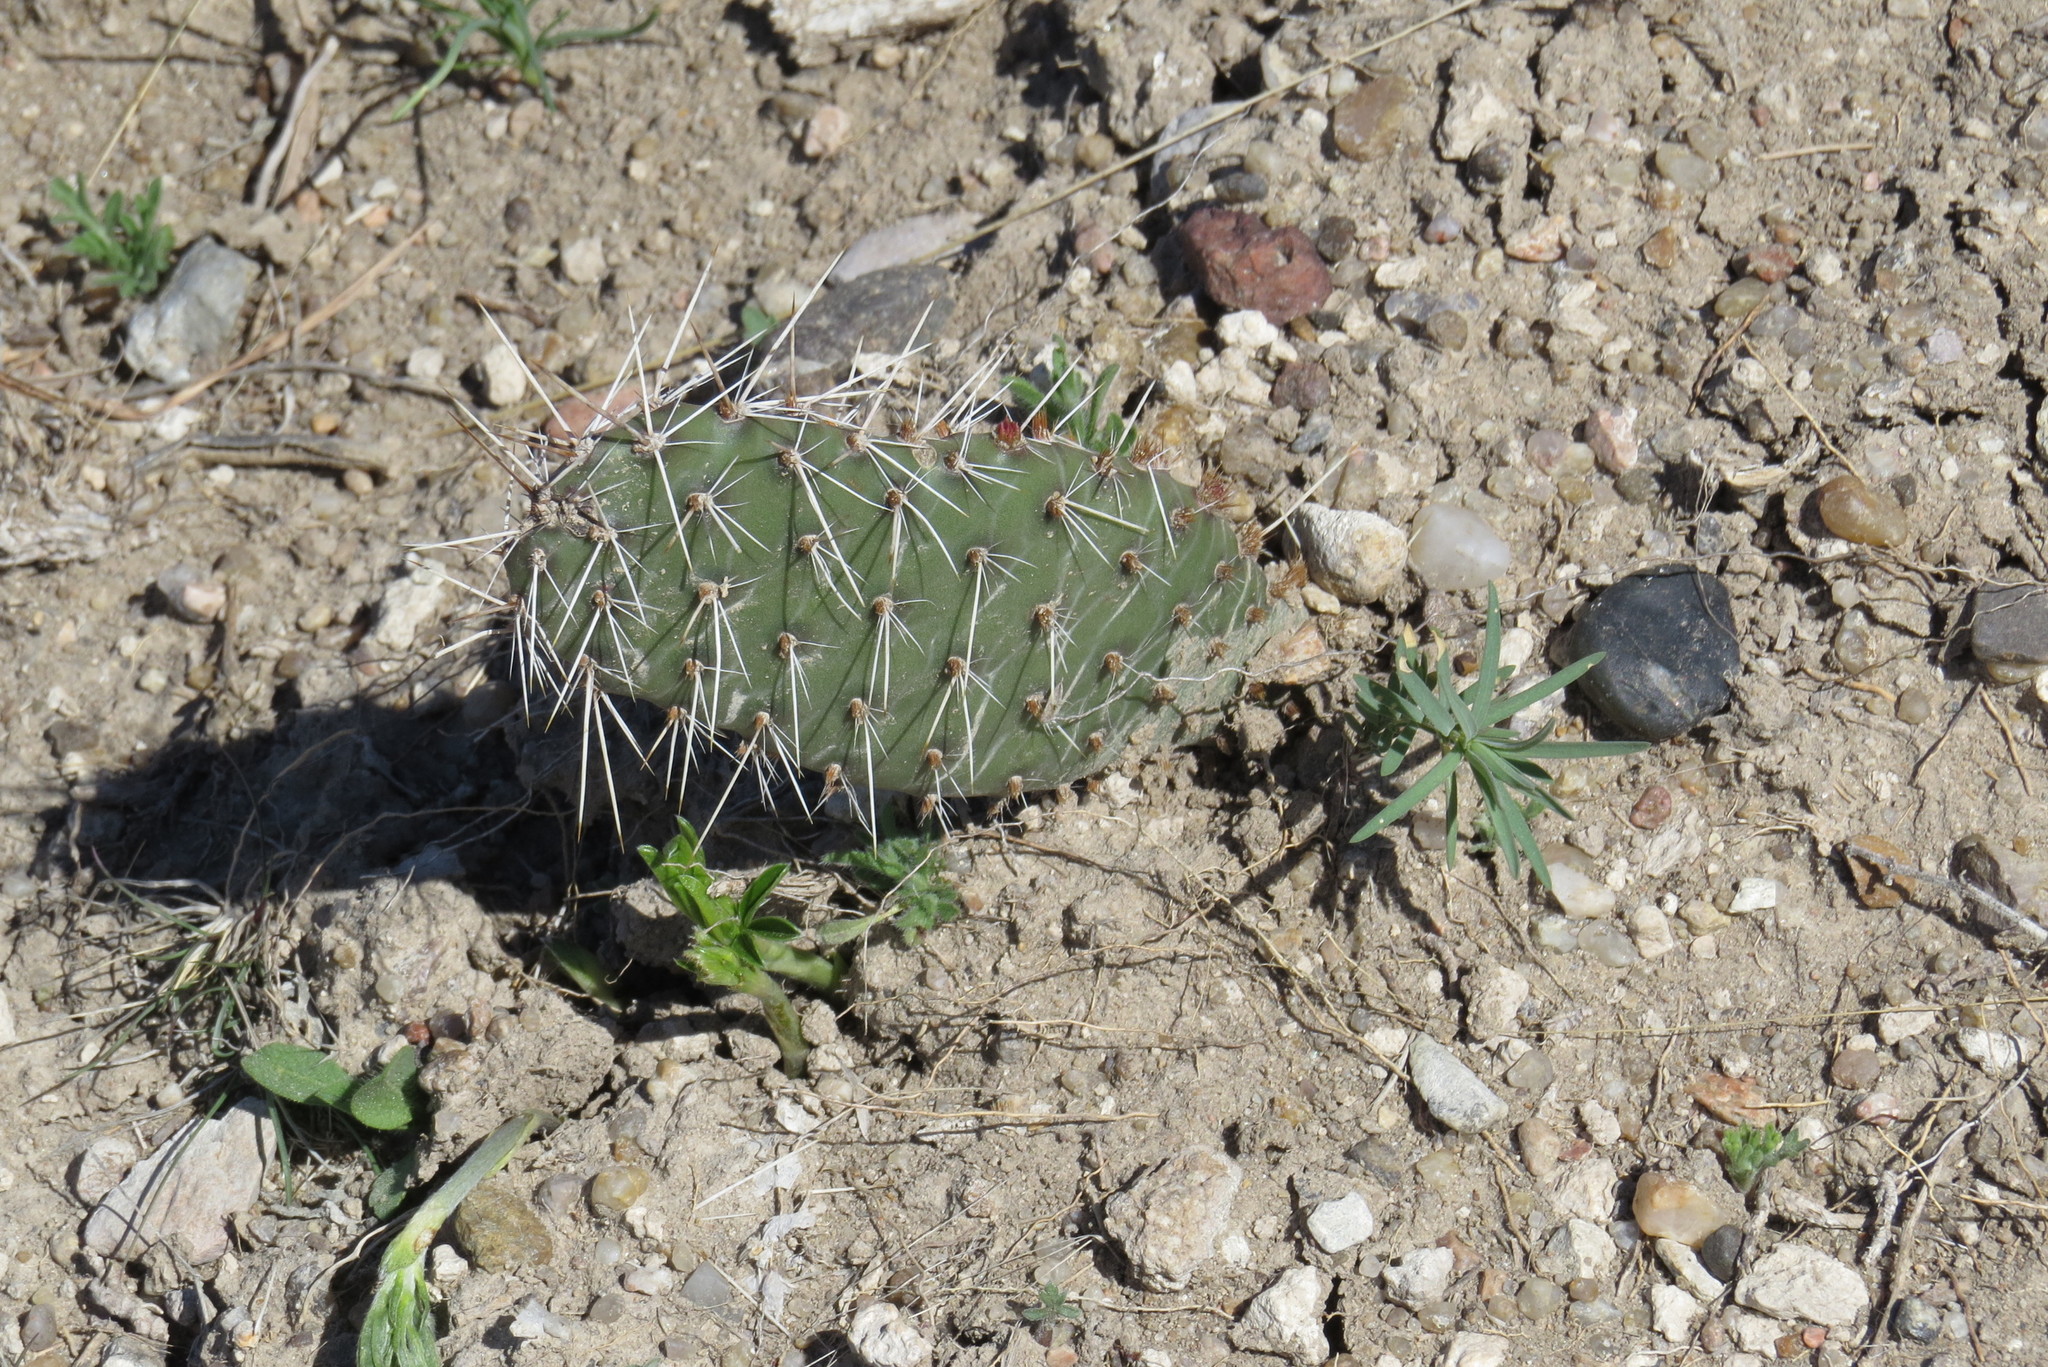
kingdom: Plantae
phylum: Tracheophyta
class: Magnoliopsida
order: Caryophyllales
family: Cactaceae
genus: Opuntia
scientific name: Opuntia cymochila
